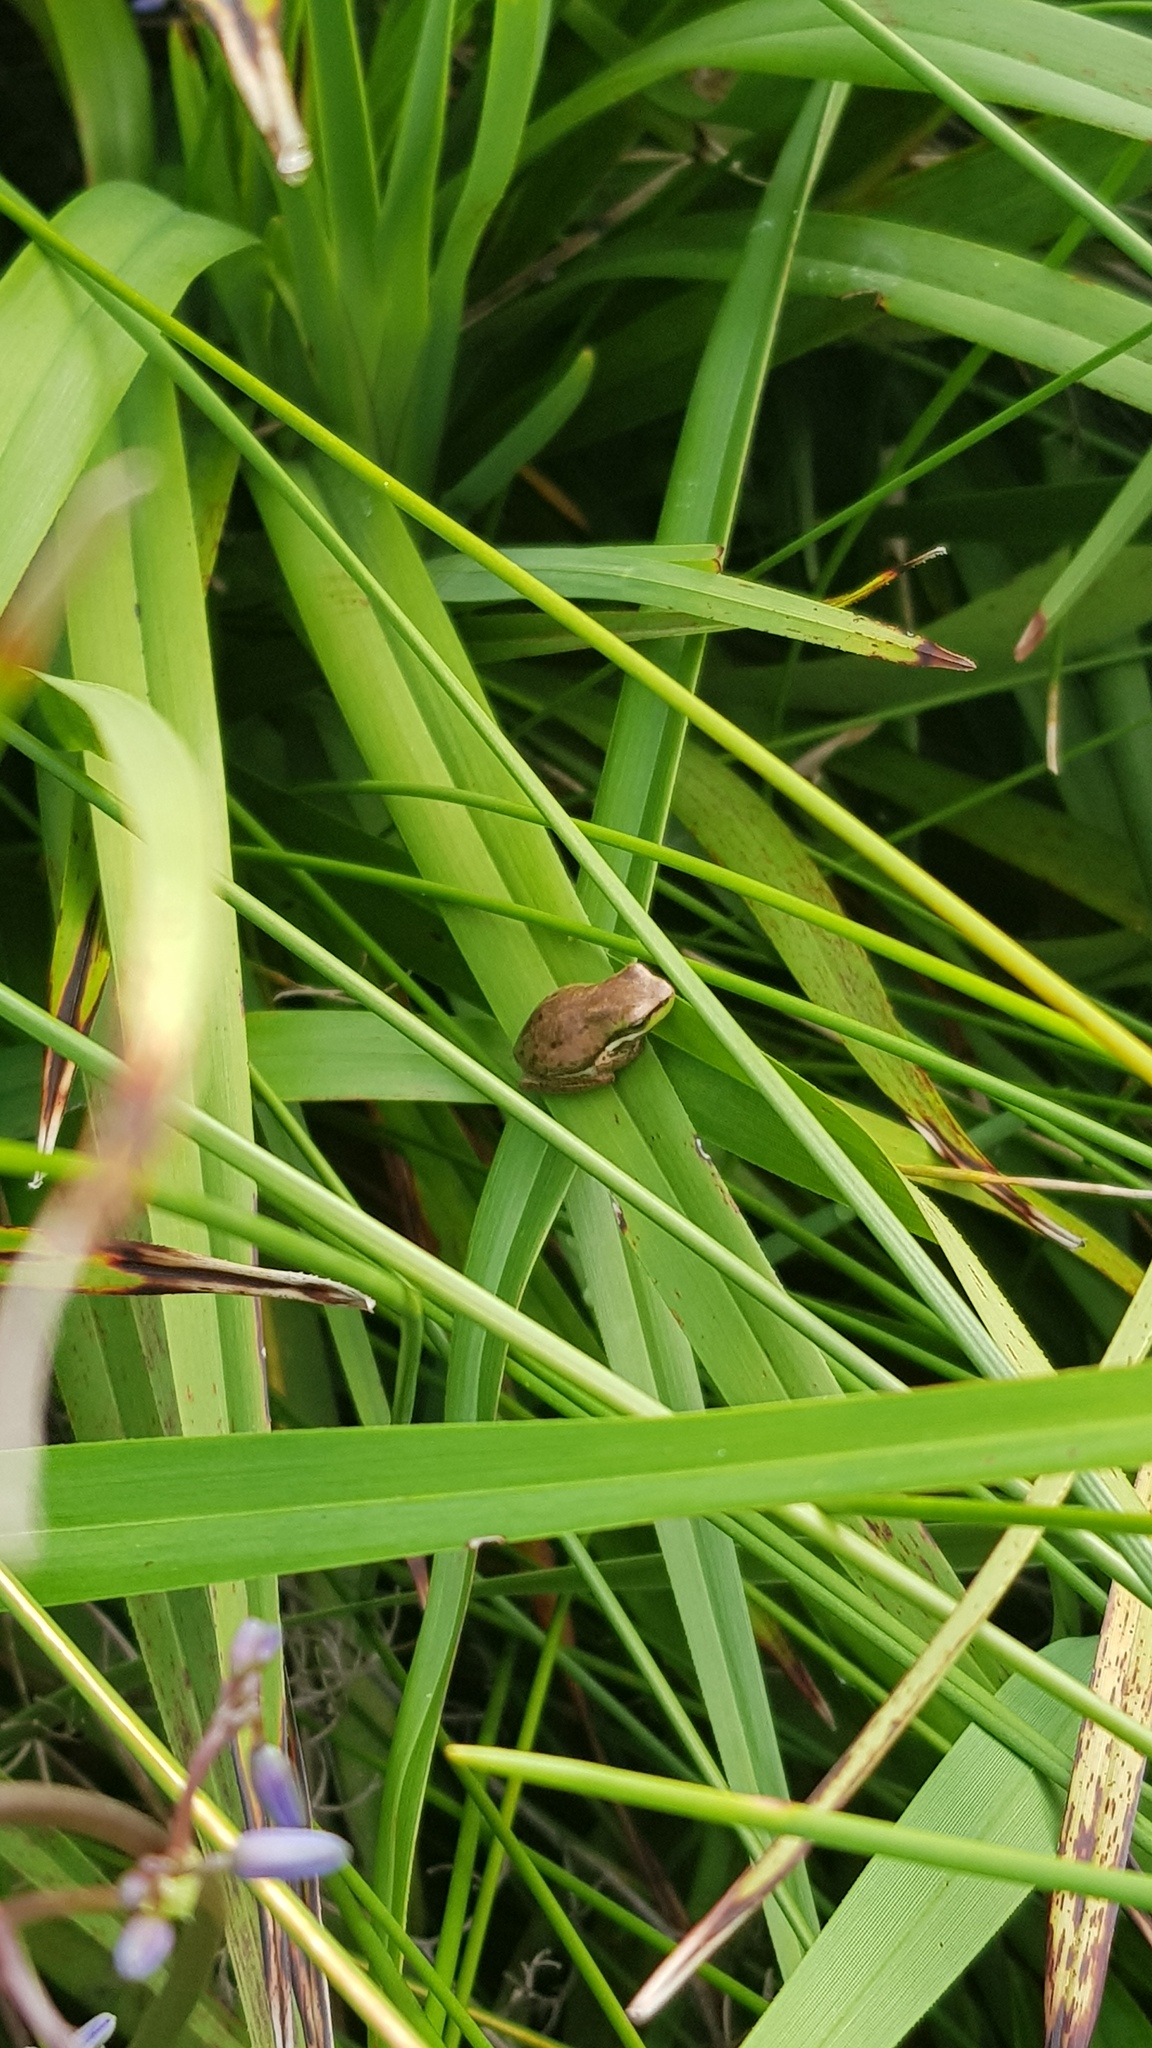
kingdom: Animalia
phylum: Chordata
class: Amphibia
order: Anura
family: Pelodryadidae
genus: Litoria
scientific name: Litoria fallax
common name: Eastern dwarf treefrog
